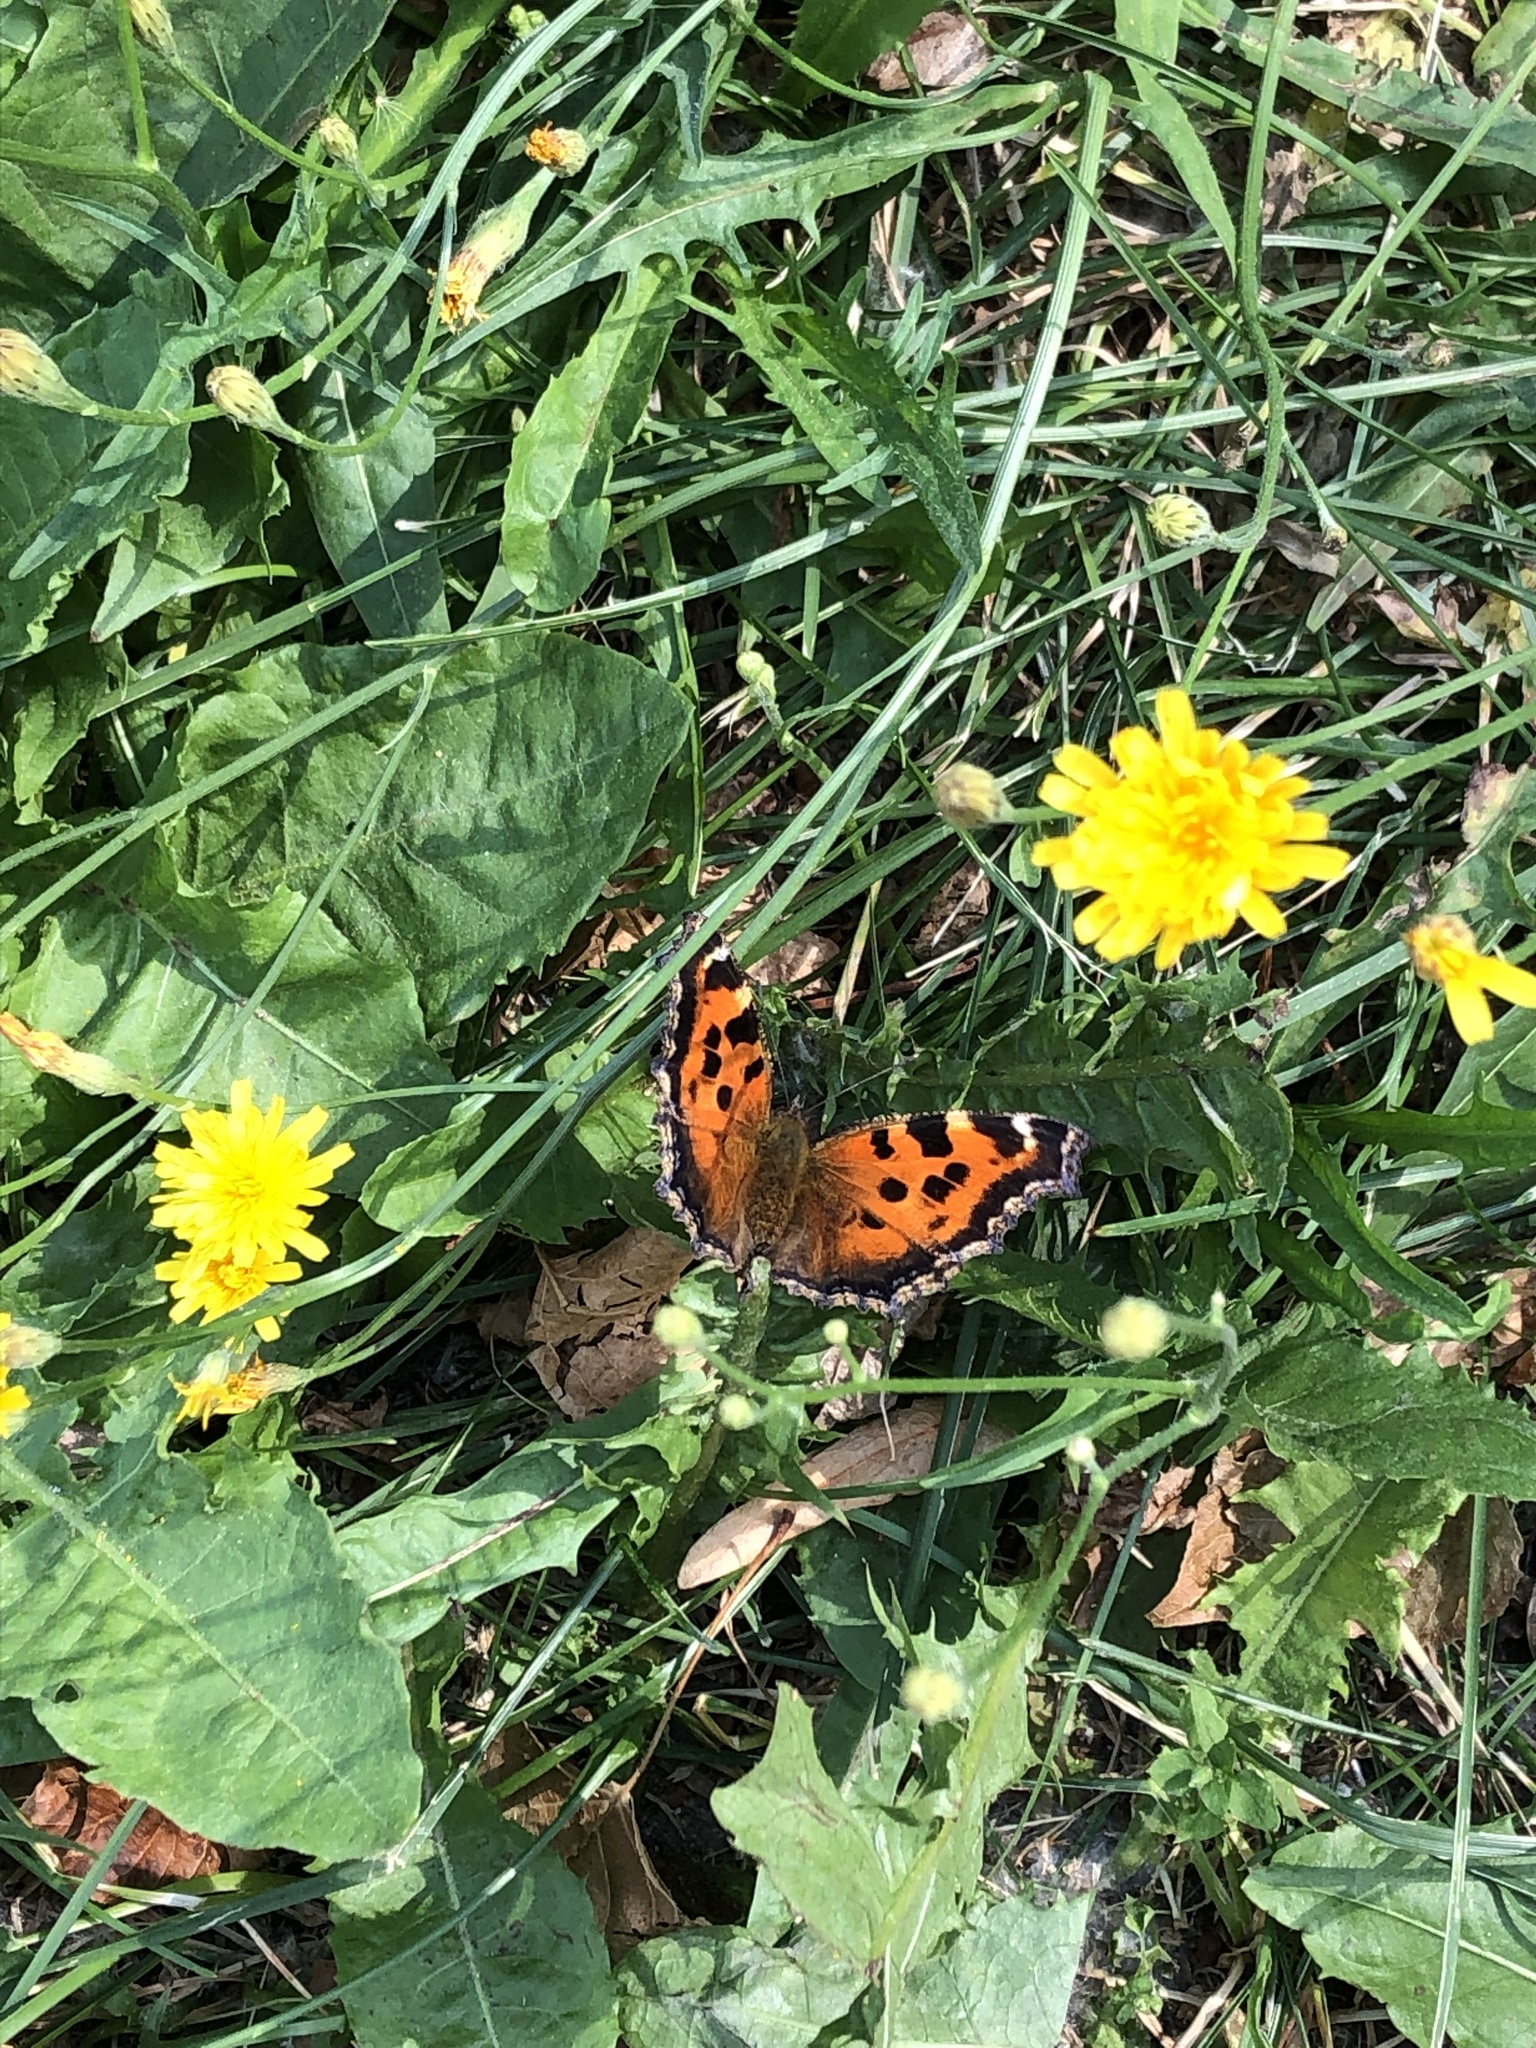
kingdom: Animalia
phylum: Arthropoda
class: Insecta
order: Lepidoptera
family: Nymphalidae
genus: Nymphalis
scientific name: Nymphalis xanthomelas
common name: Scarce tortoiseshell
